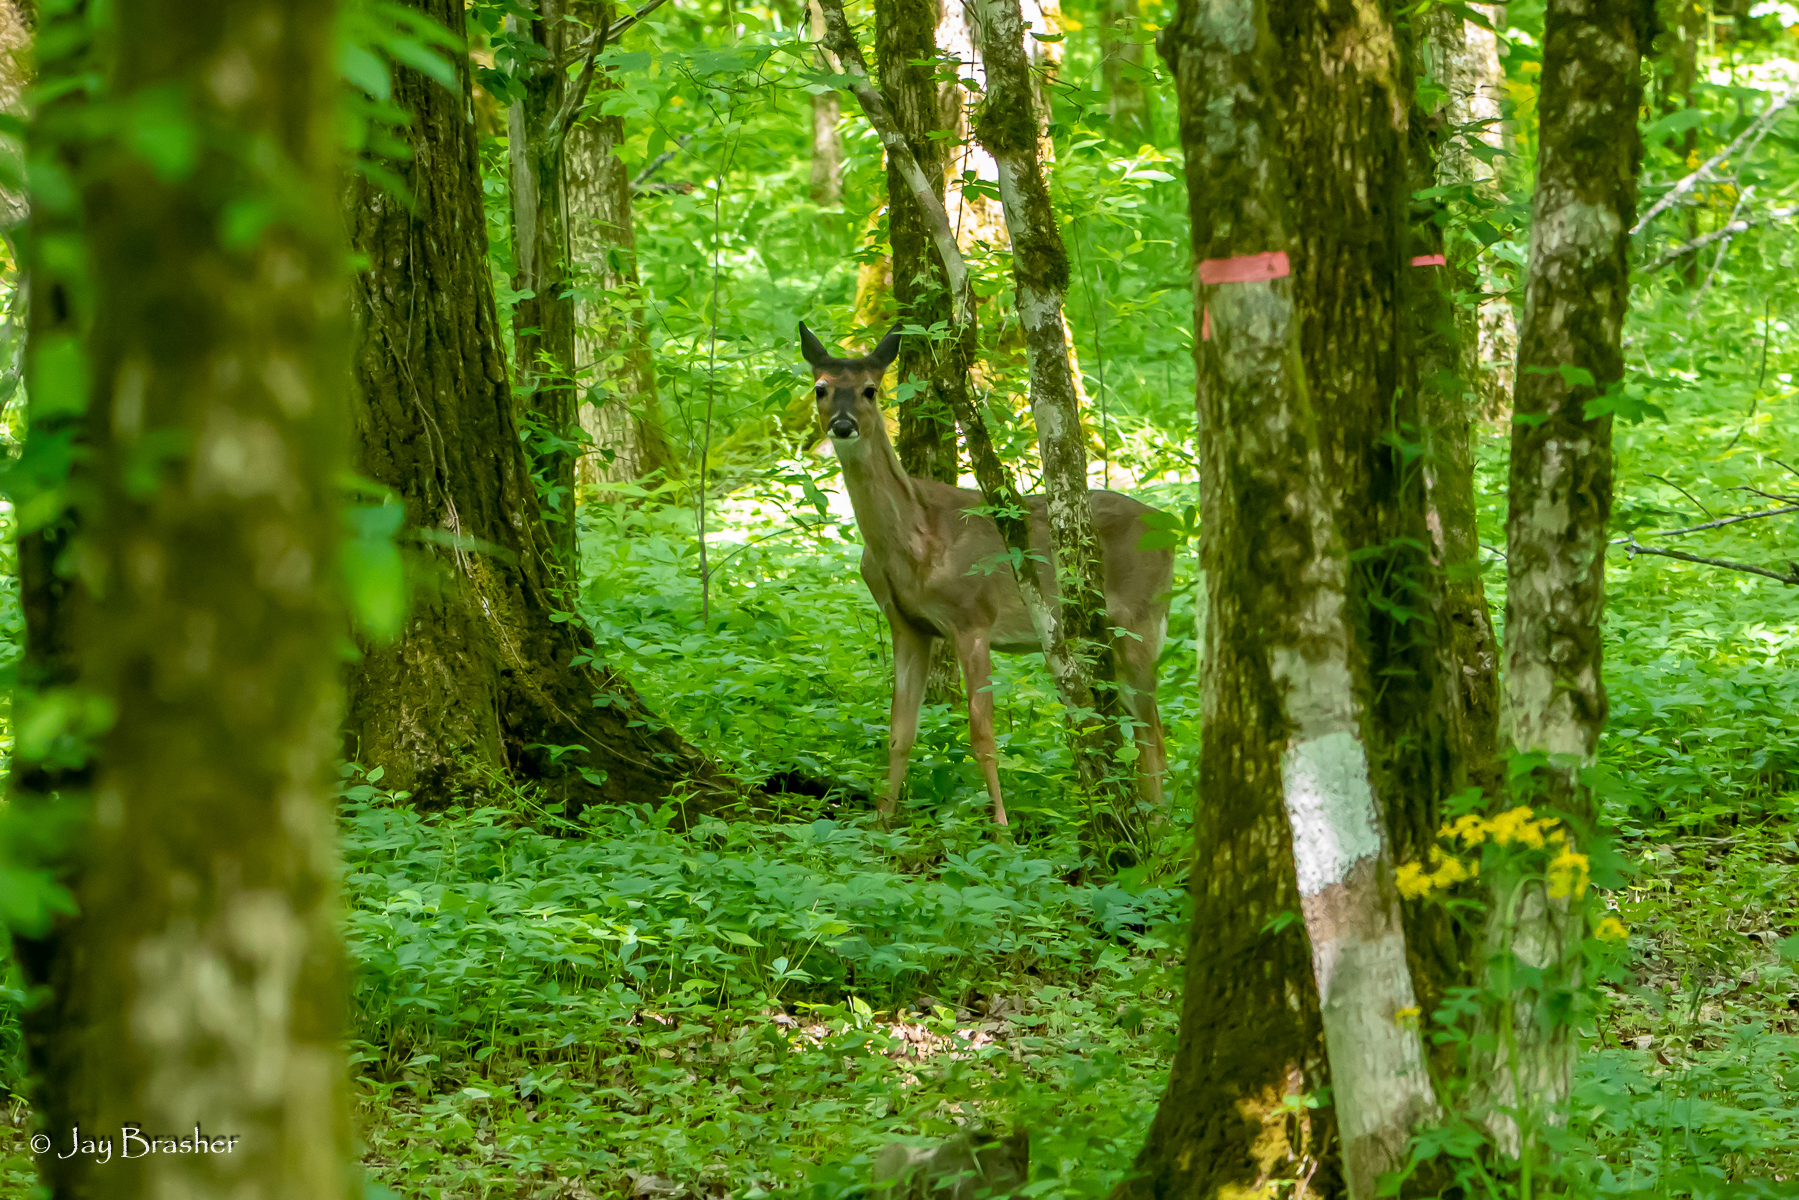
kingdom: Animalia
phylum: Chordata
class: Mammalia
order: Artiodactyla
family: Cervidae
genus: Odocoileus
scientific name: Odocoileus virginianus
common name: White-tailed deer
